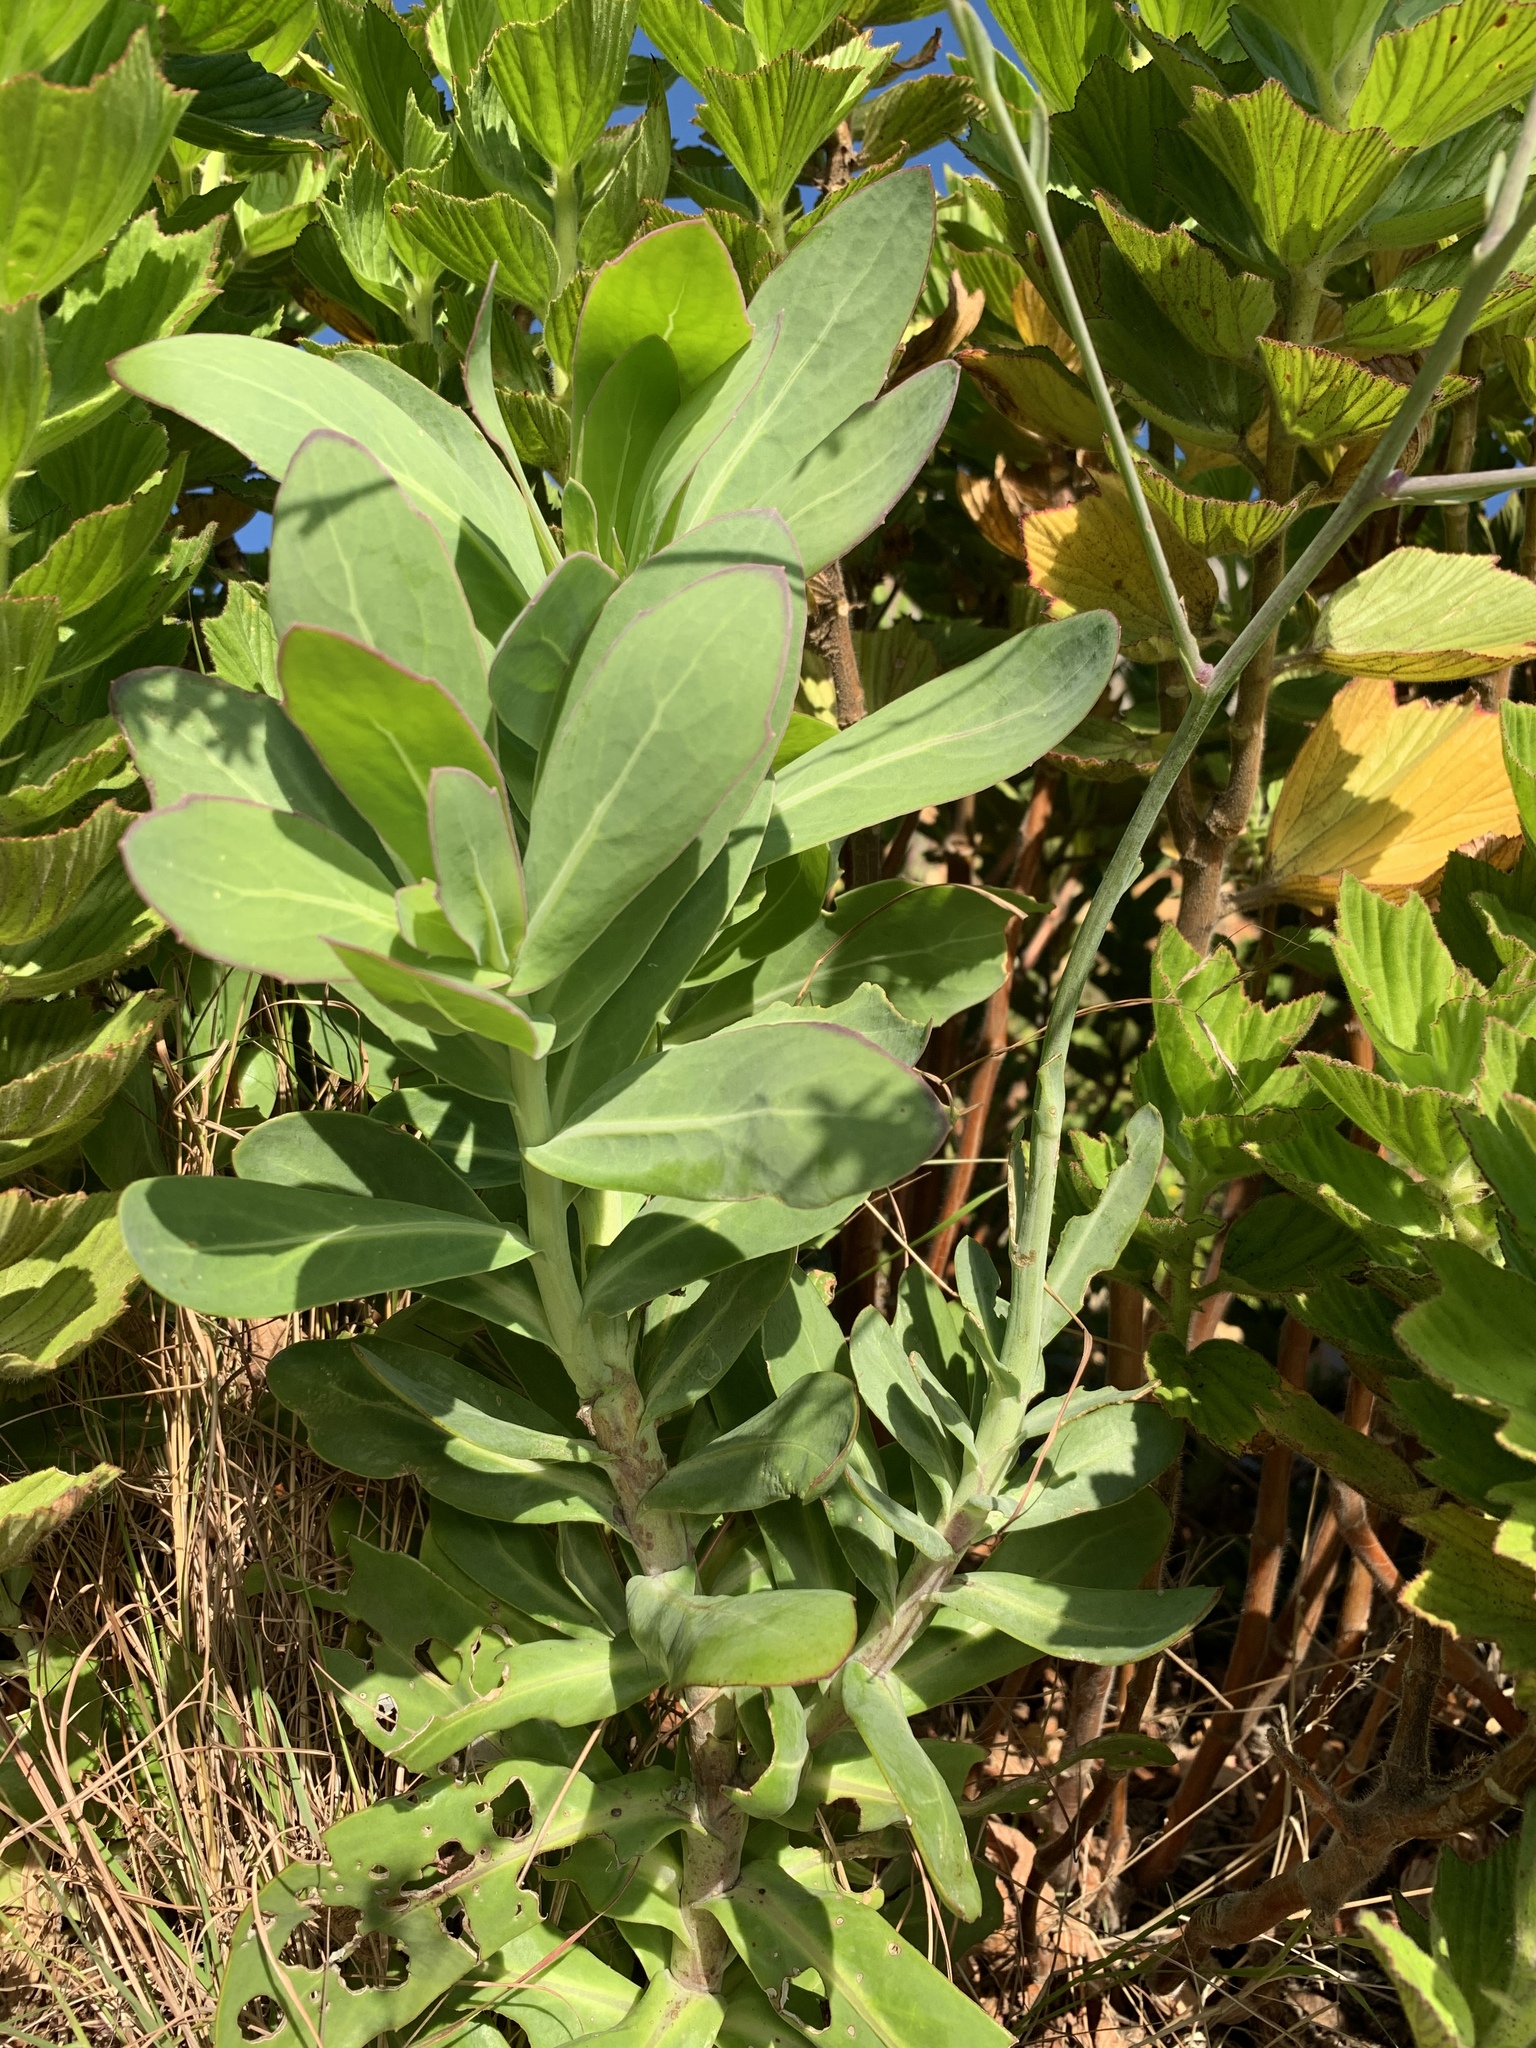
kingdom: Plantae
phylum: Tracheophyta
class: Magnoliopsida
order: Asterales
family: Asteraceae
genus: Othonna
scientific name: Othonna quinquedentata
